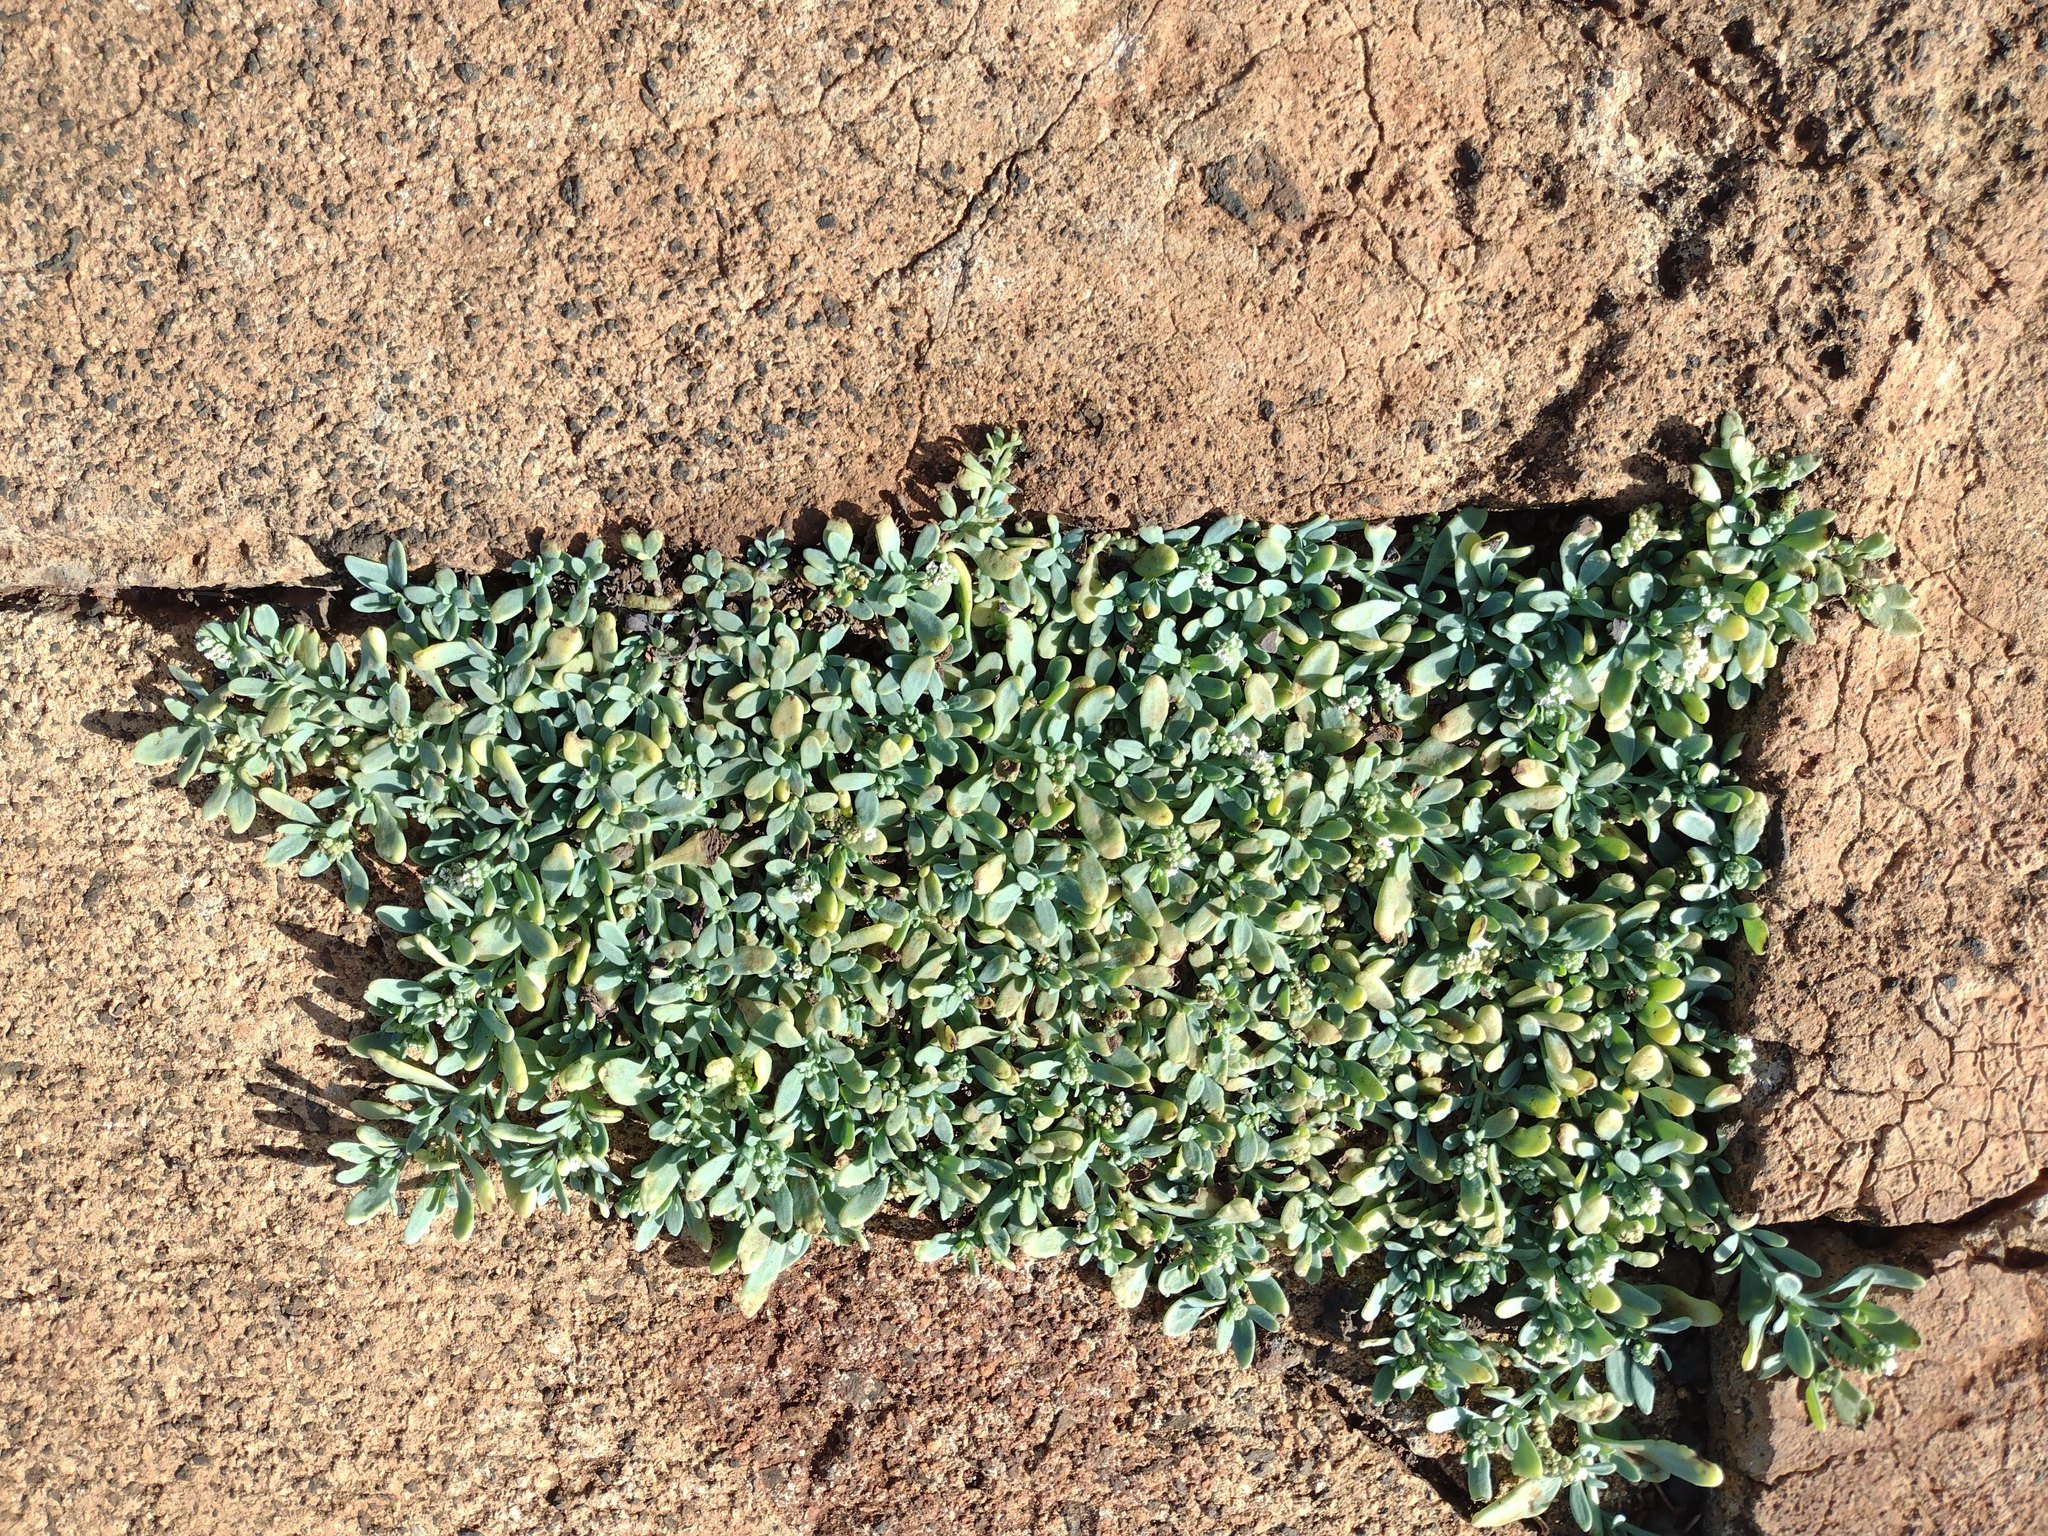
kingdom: Plantae
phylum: Tracheophyta
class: Magnoliopsida
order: Boraginales
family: Heliotropiaceae
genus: Heliotropium
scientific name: Heliotropium curassavicum
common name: Seaside heliotrope
